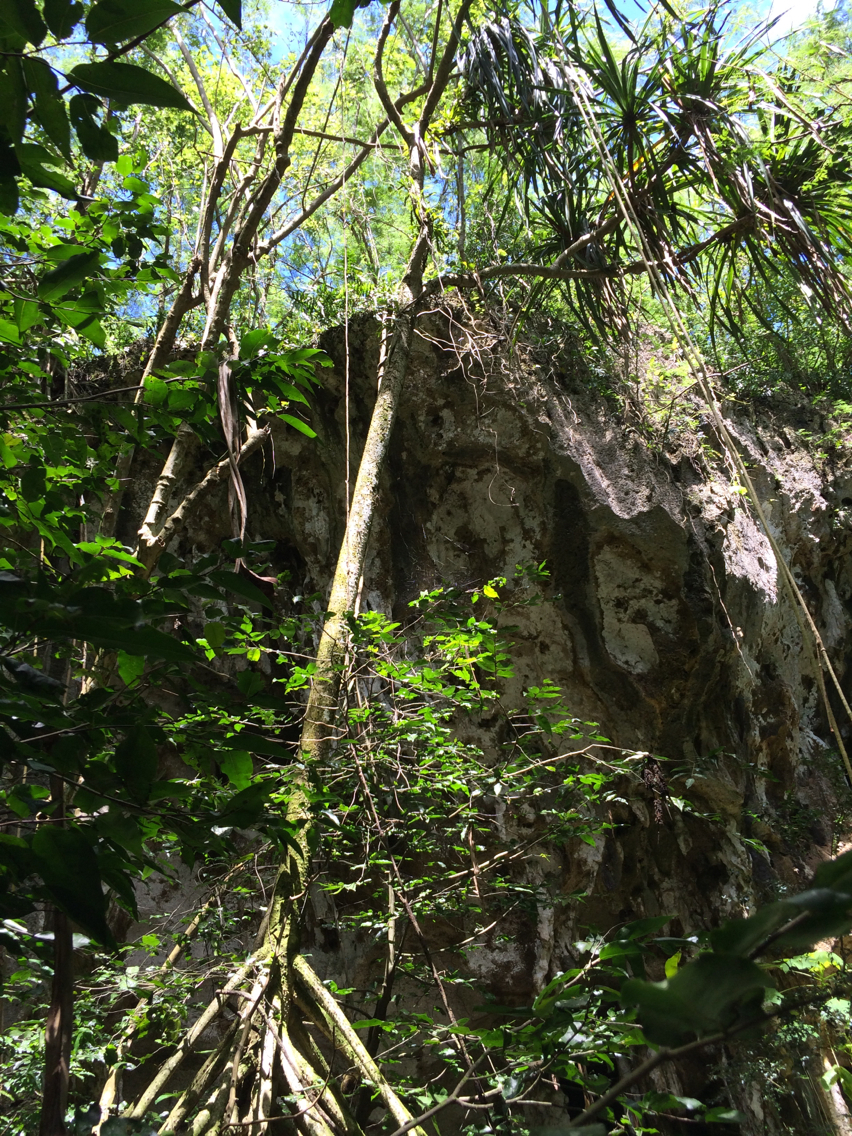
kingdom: Plantae
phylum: Tracheophyta
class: Liliopsida
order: Pandanales
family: Pandanaceae
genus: Pandanus
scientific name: Pandanus tectorius
